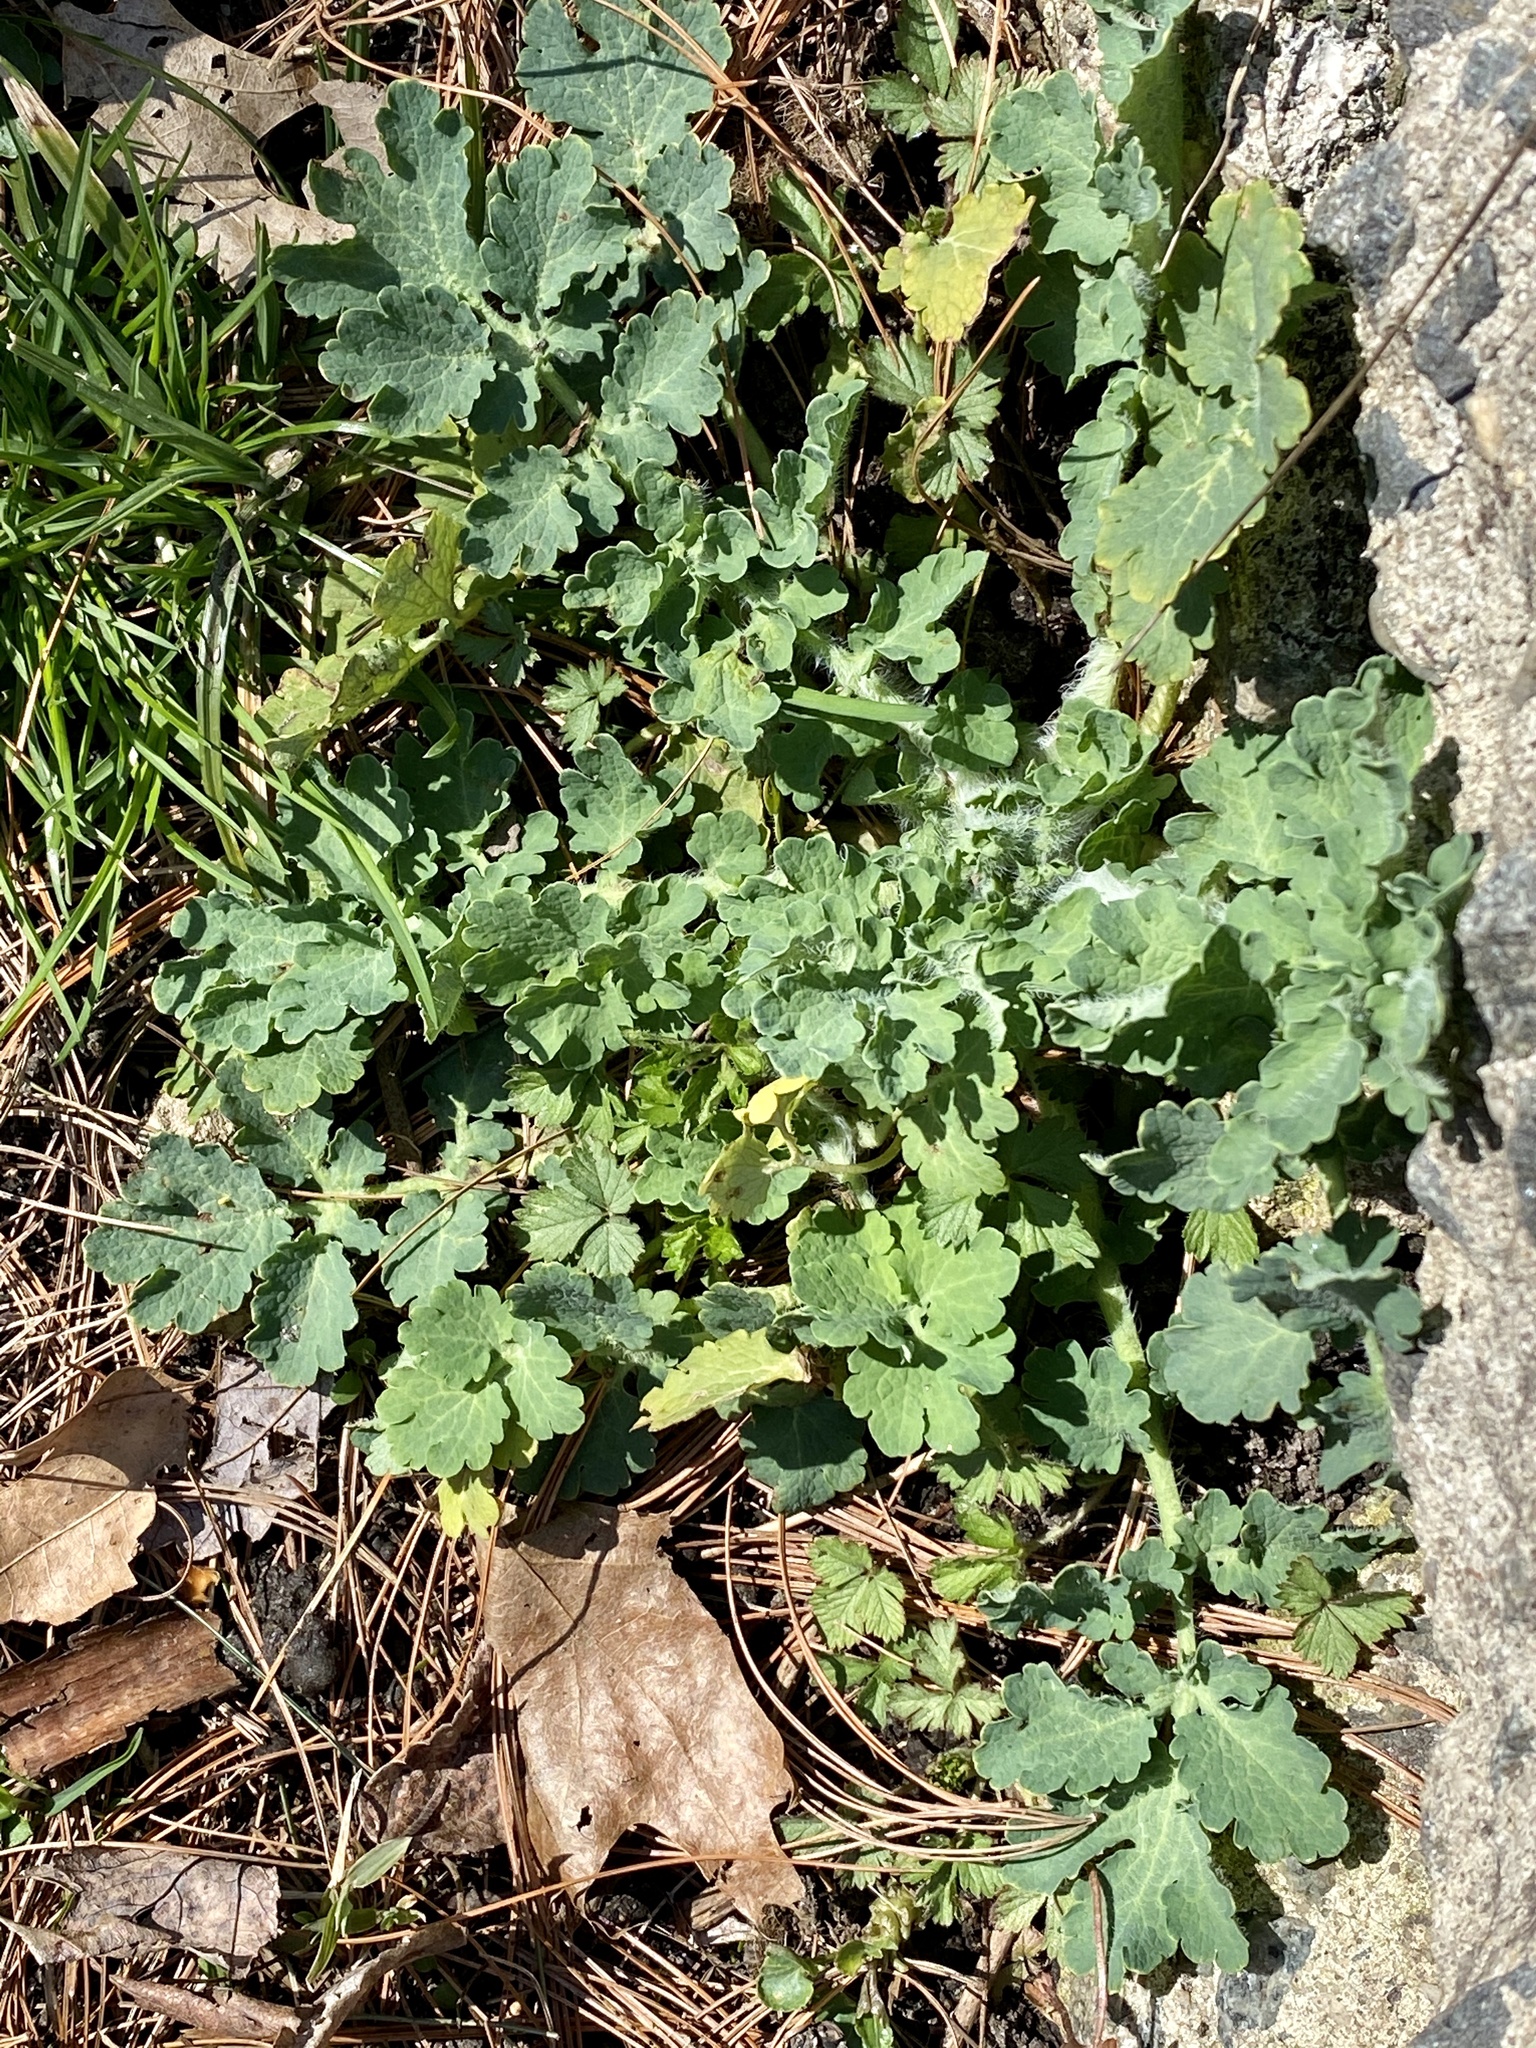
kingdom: Plantae
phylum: Tracheophyta
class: Magnoliopsida
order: Ranunculales
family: Papaveraceae
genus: Chelidonium
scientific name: Chelidonium majus
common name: Greater celandine
